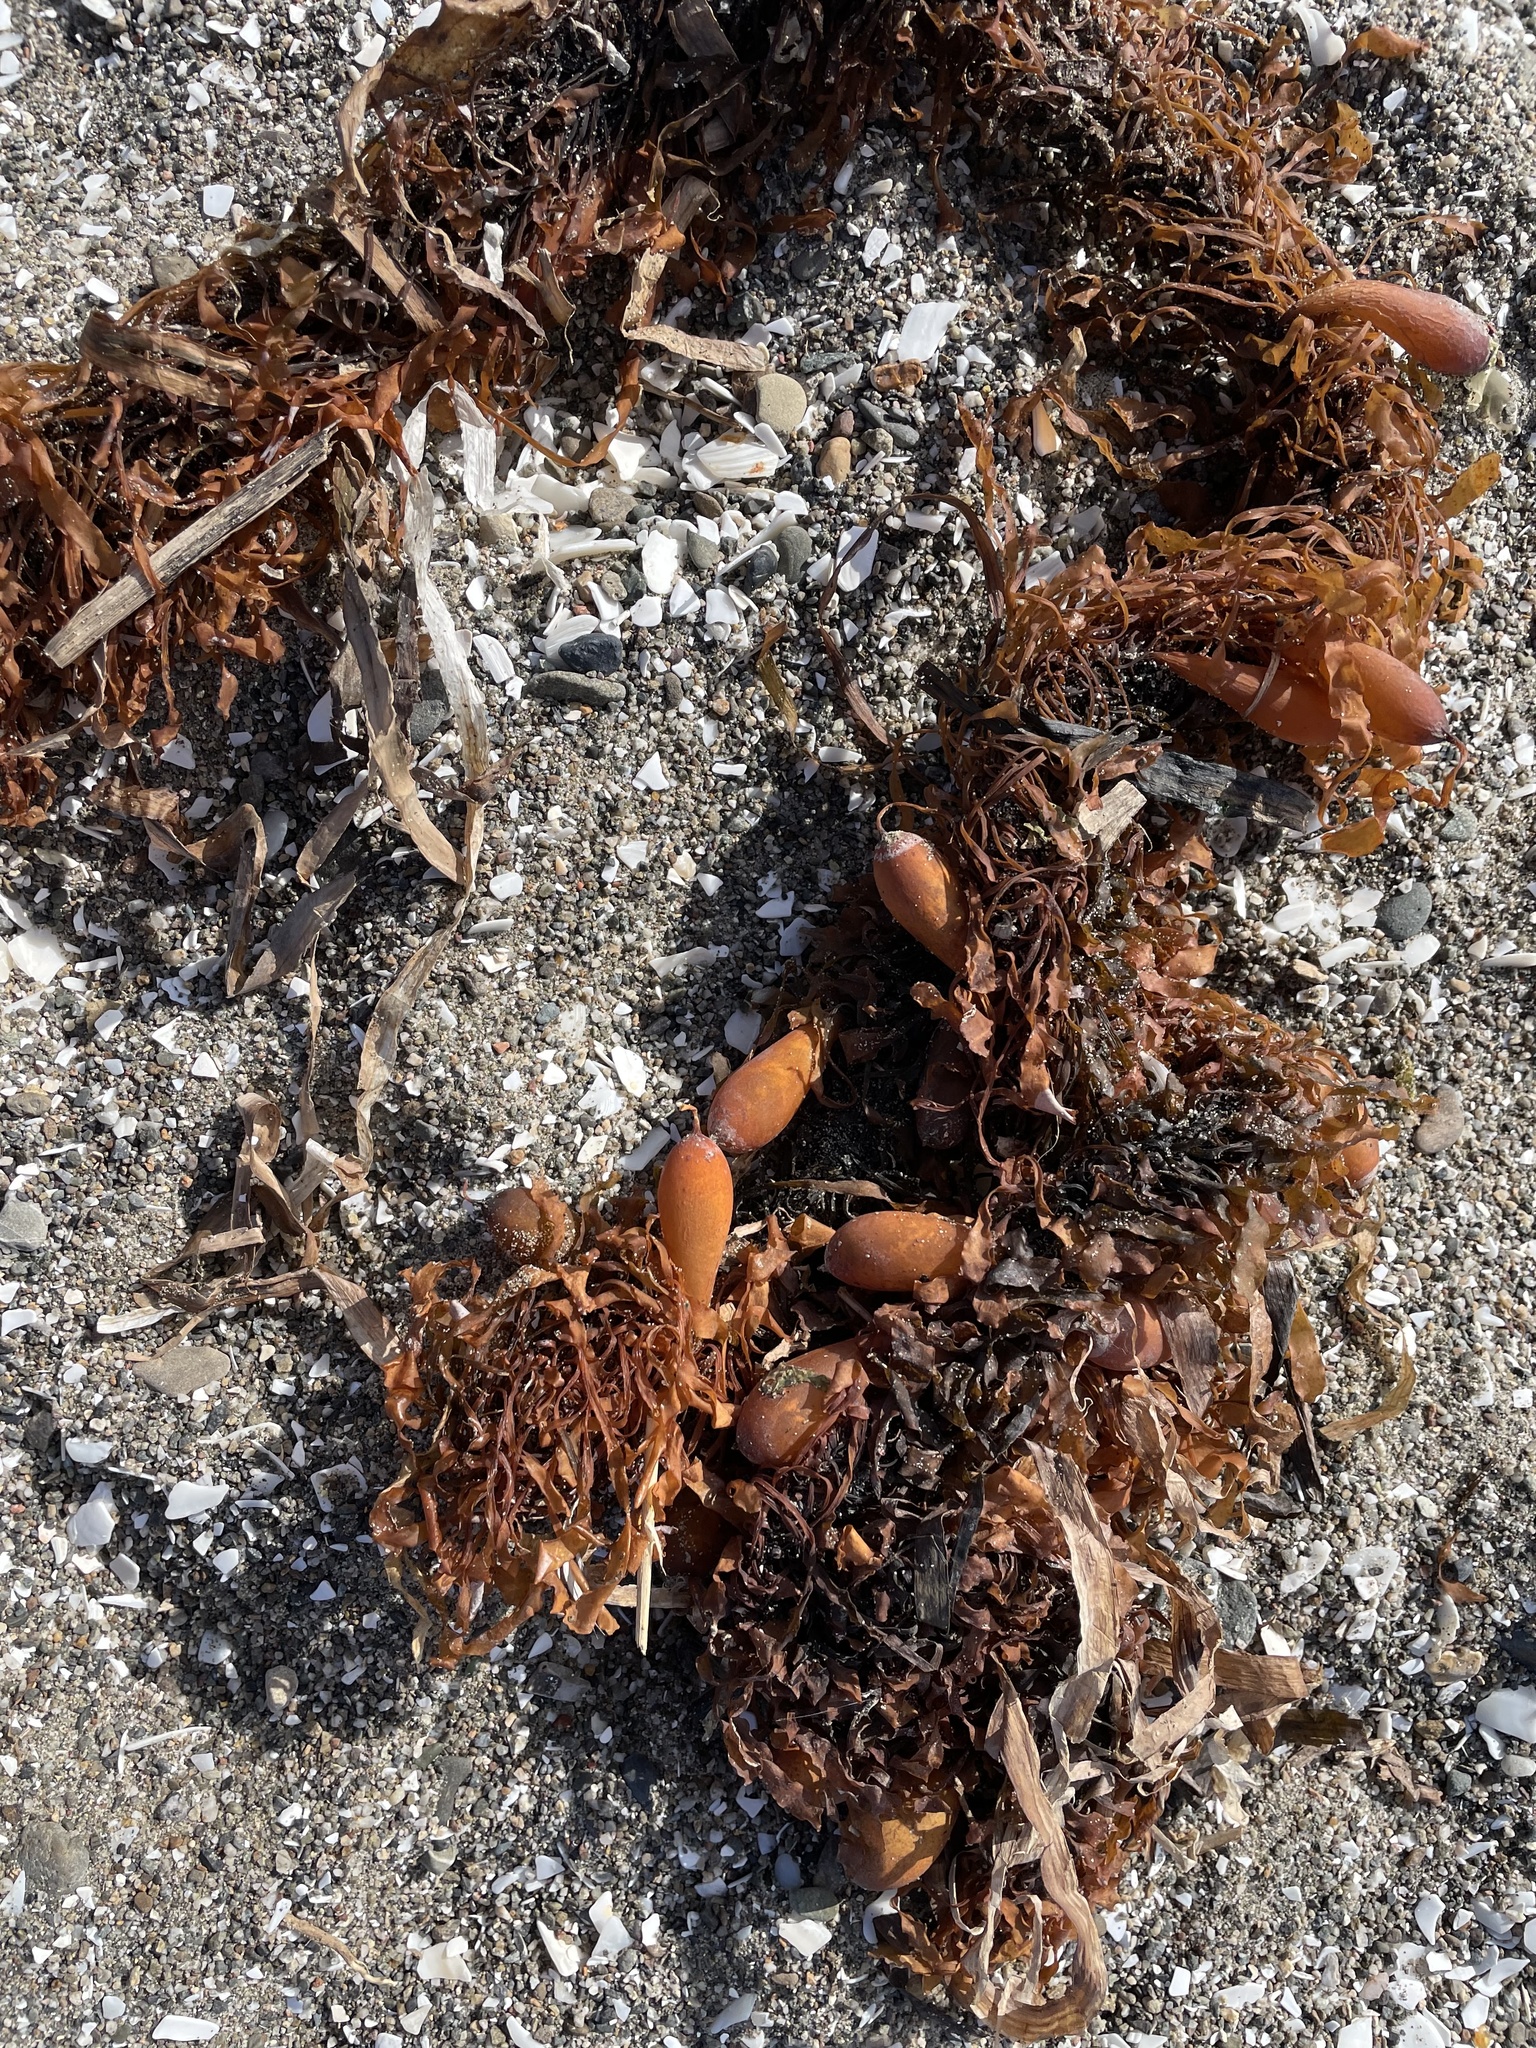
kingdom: Chromista
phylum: Ochrophyta
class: Phaeophyceae
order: Laminariales
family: Lessoniaceae
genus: Egregia
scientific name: Egregia menziesii
